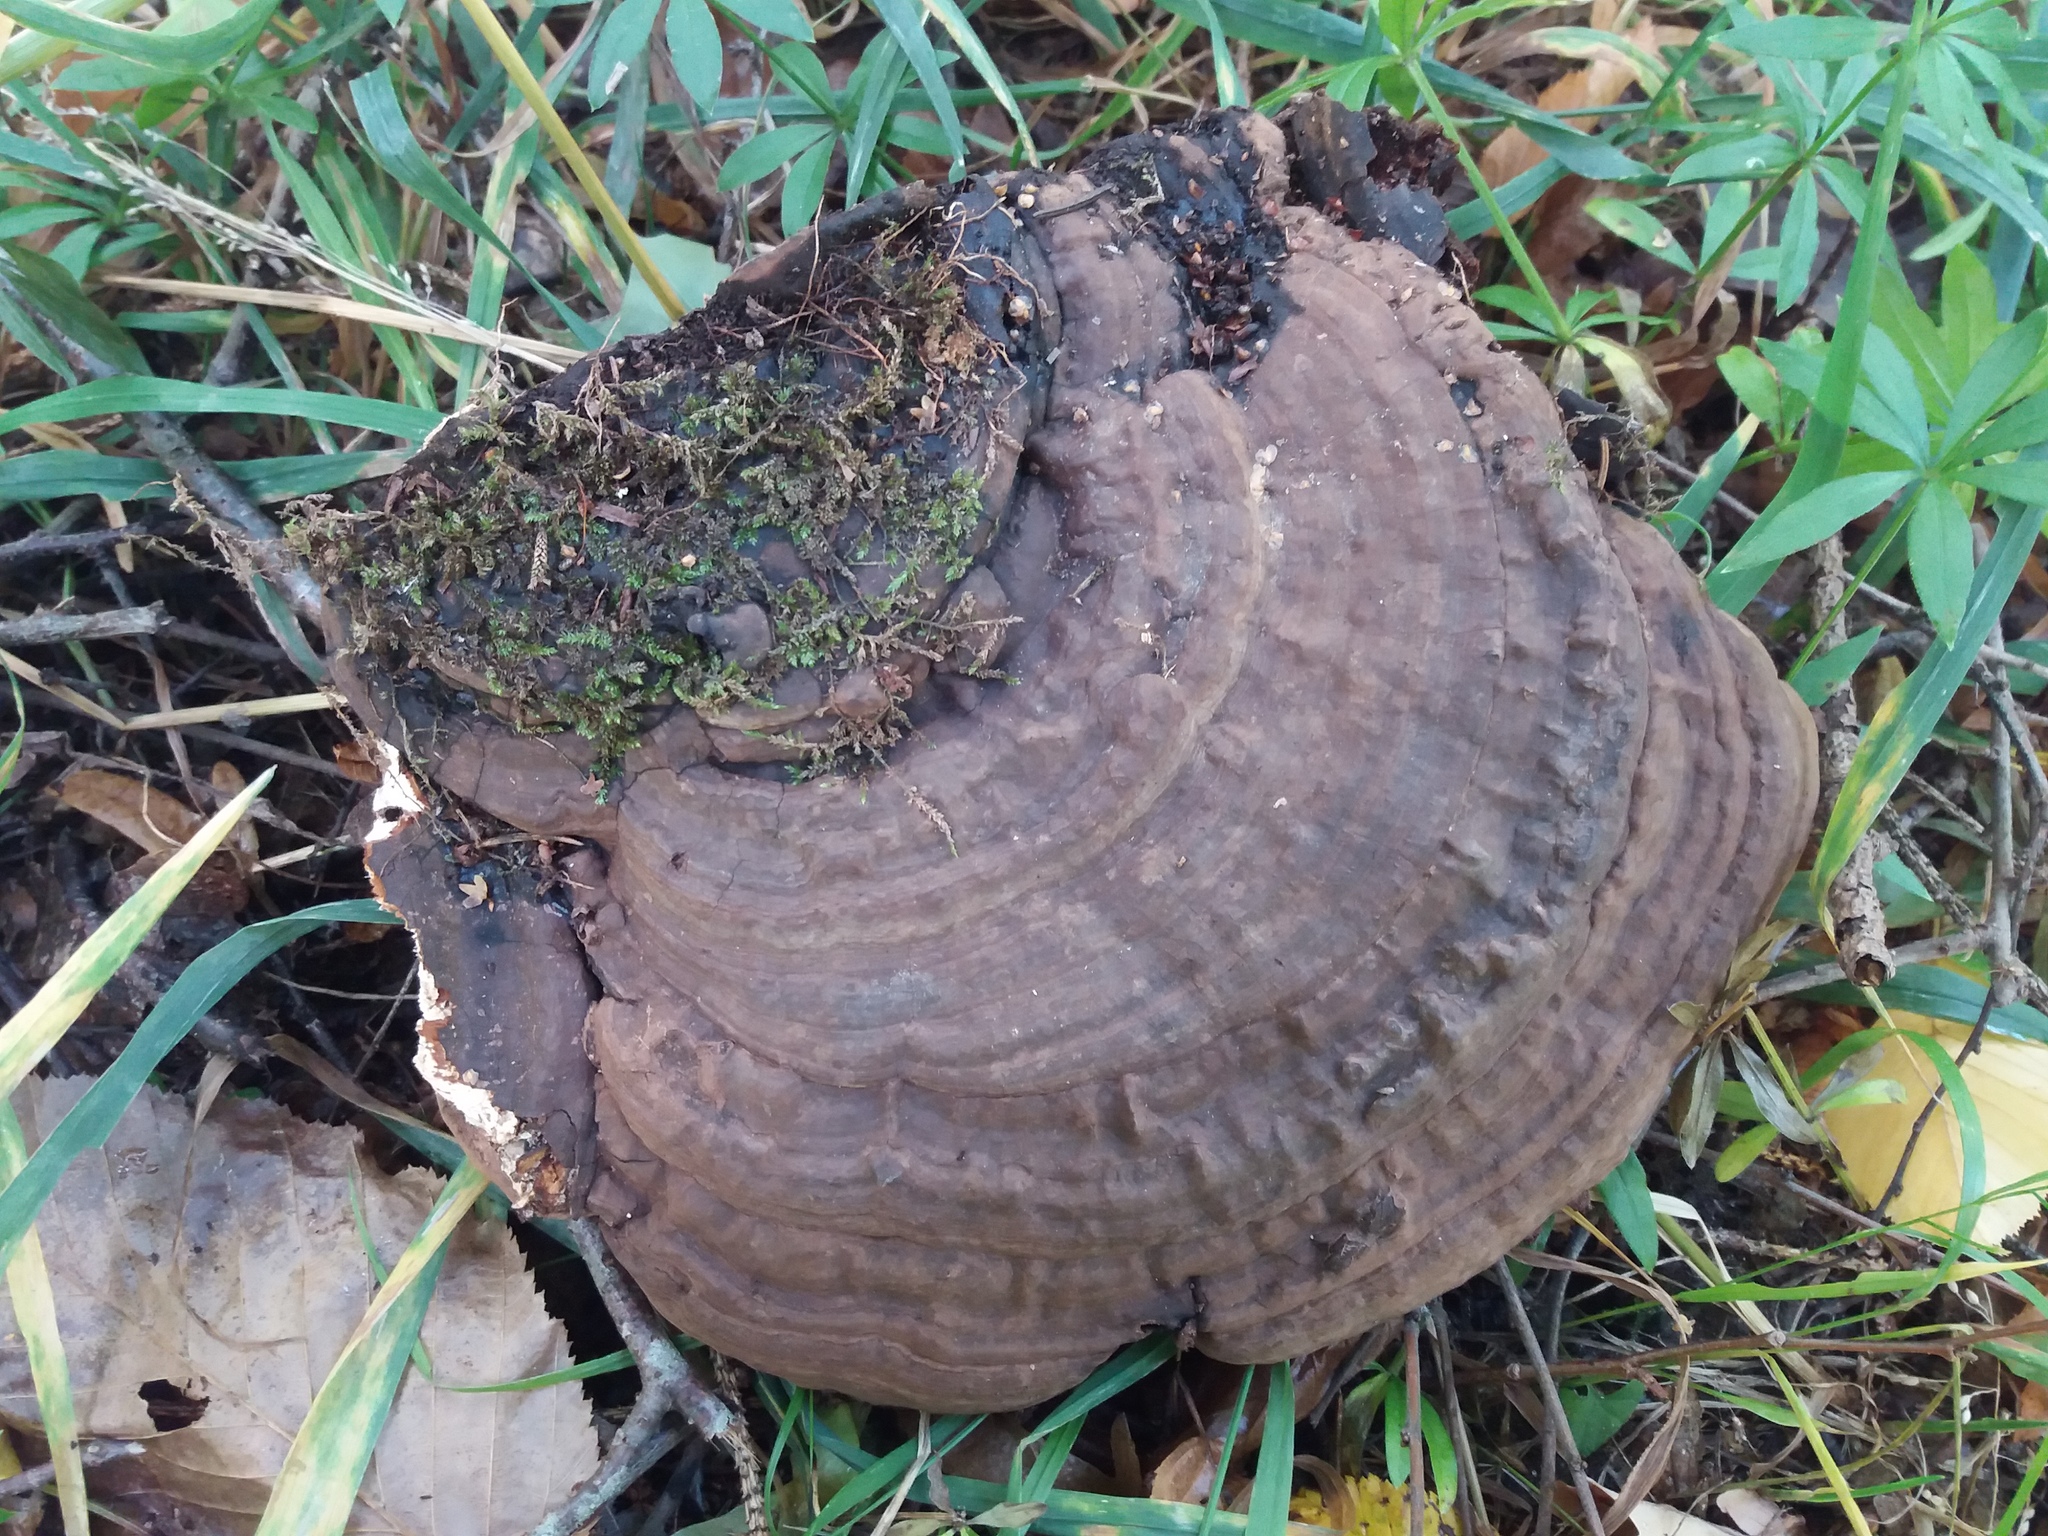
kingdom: Fungi
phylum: Basidiomycota
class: Agaricomycetes
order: Polyporales
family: Polyporaceae
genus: Ganoderma
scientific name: Ganoderma applanatum
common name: Artist's bracket
